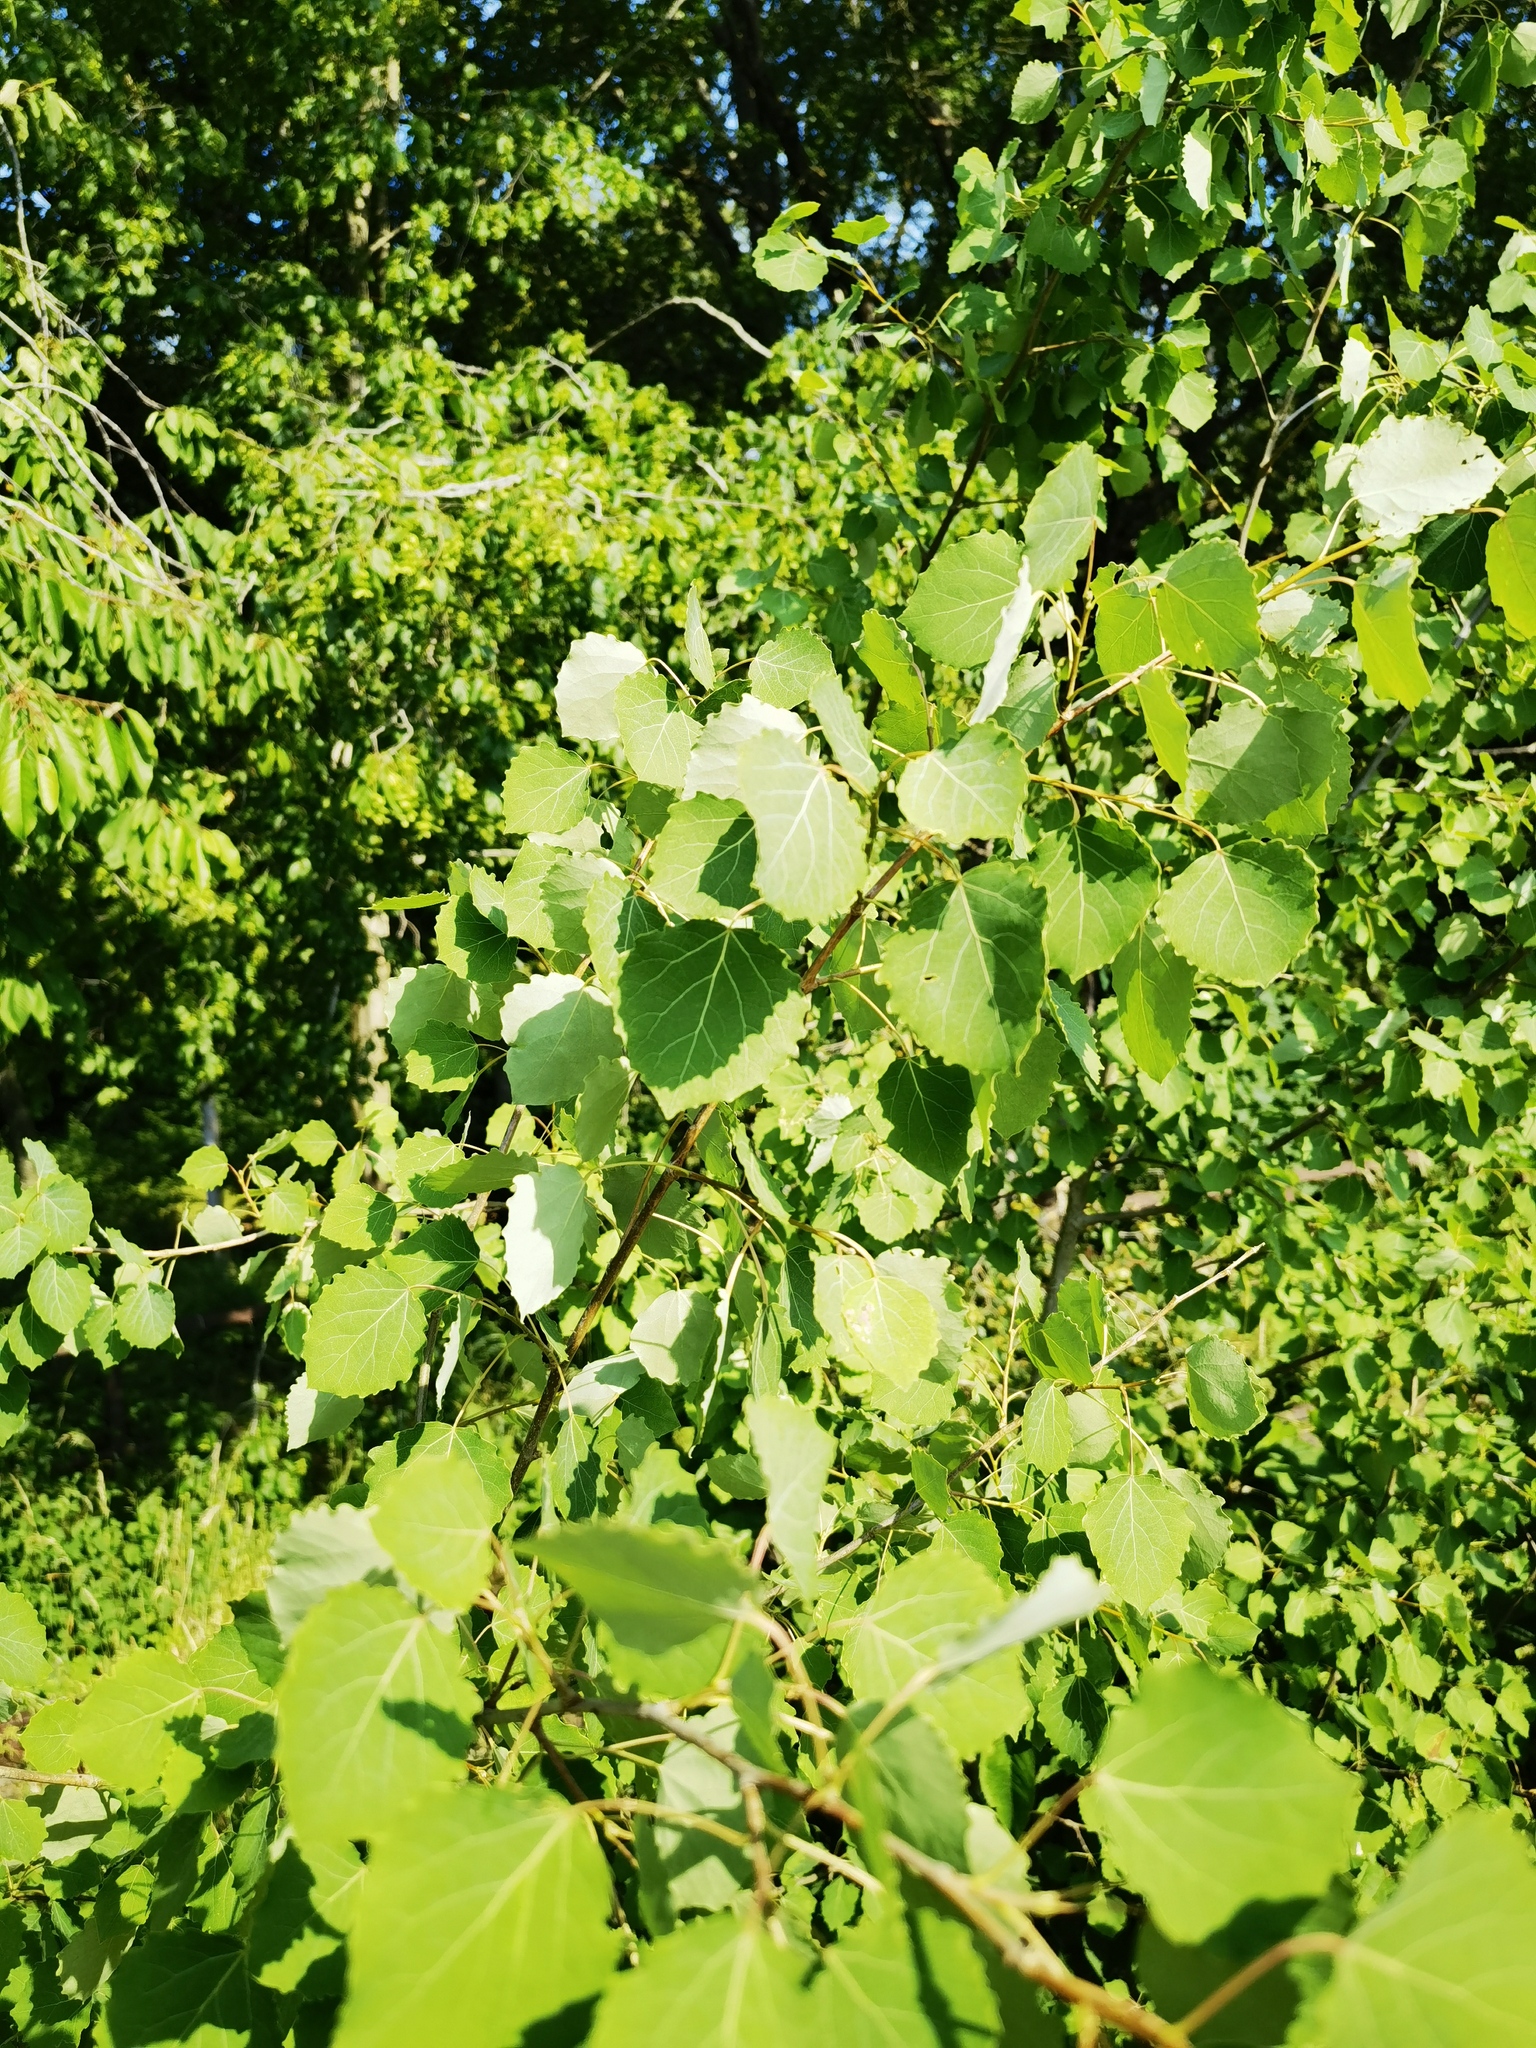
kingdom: Plantae
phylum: Tracheophyta
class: Magnoliopsida
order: Malpighiales
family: Salicaceae
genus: Populus
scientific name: Populus tremula
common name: European aspen
